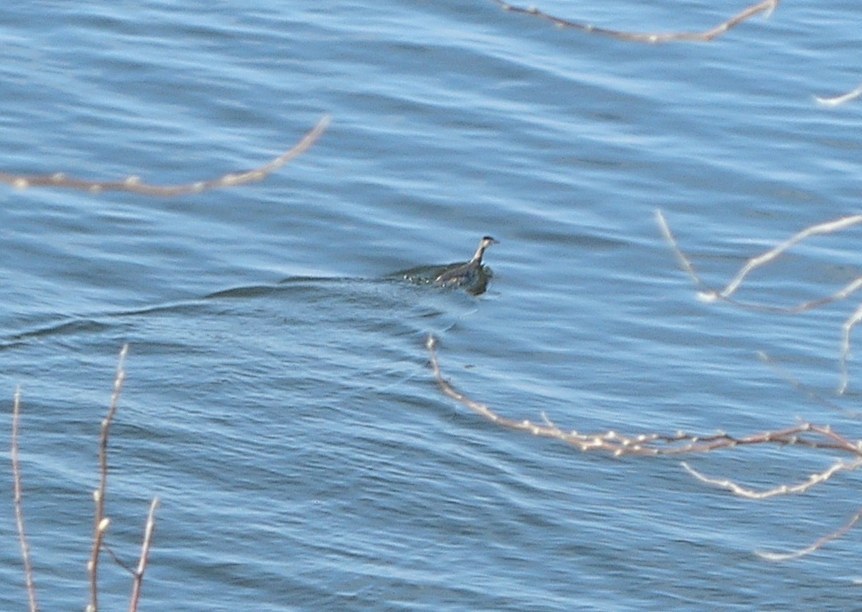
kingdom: Animalia
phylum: Chordata
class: Aves
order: Podicipediformes
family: Podicipedidae
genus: Podiceps
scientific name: Podiceps cristatus
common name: Great crested grebe
